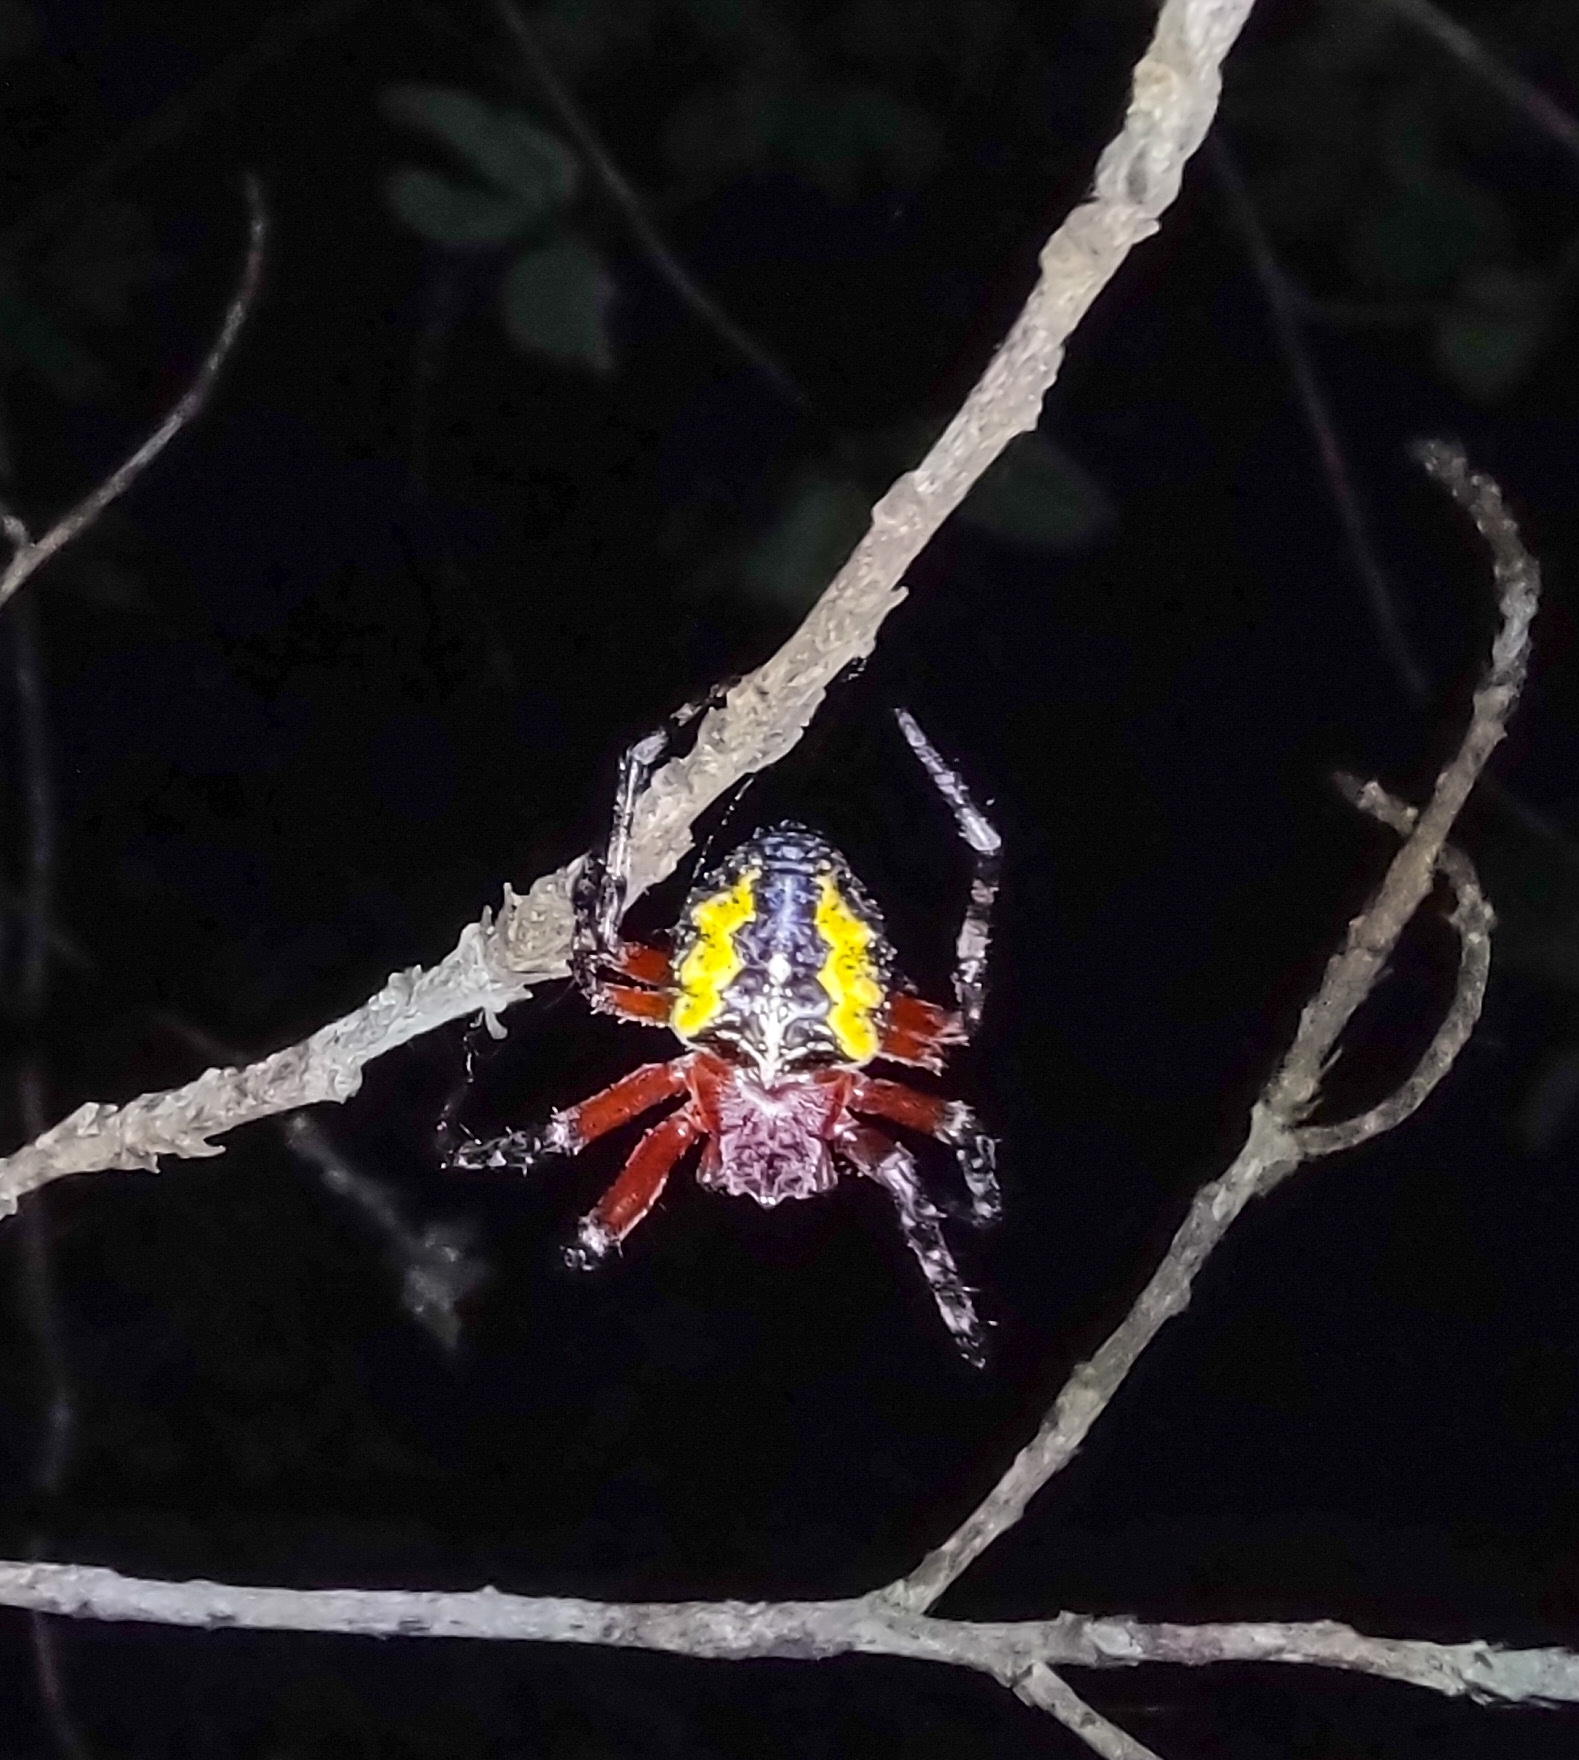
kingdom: Animalia
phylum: Arthropoda
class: Arachnida
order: Araneae
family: Araneidae
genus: Parawixia
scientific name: Parawixia undulata
